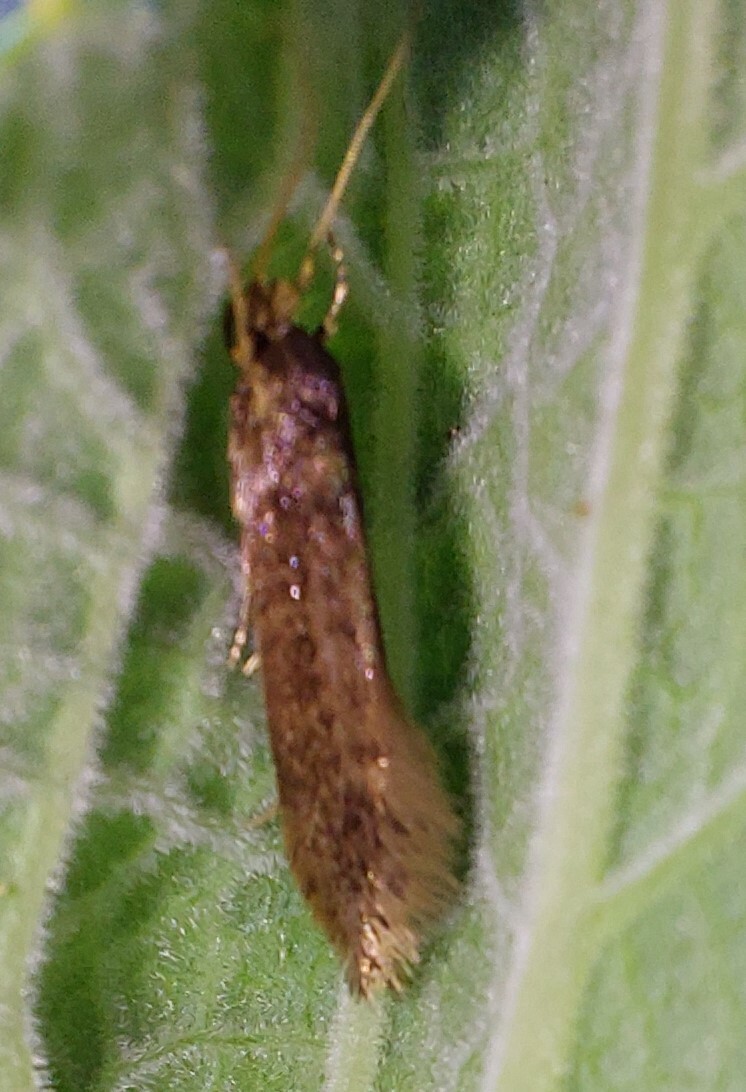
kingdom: Animalia
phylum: Arthropoda
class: Insecta
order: Lepidoptera
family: Tineidae
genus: Opogona
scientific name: Opogona omoscopa
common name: Moth
